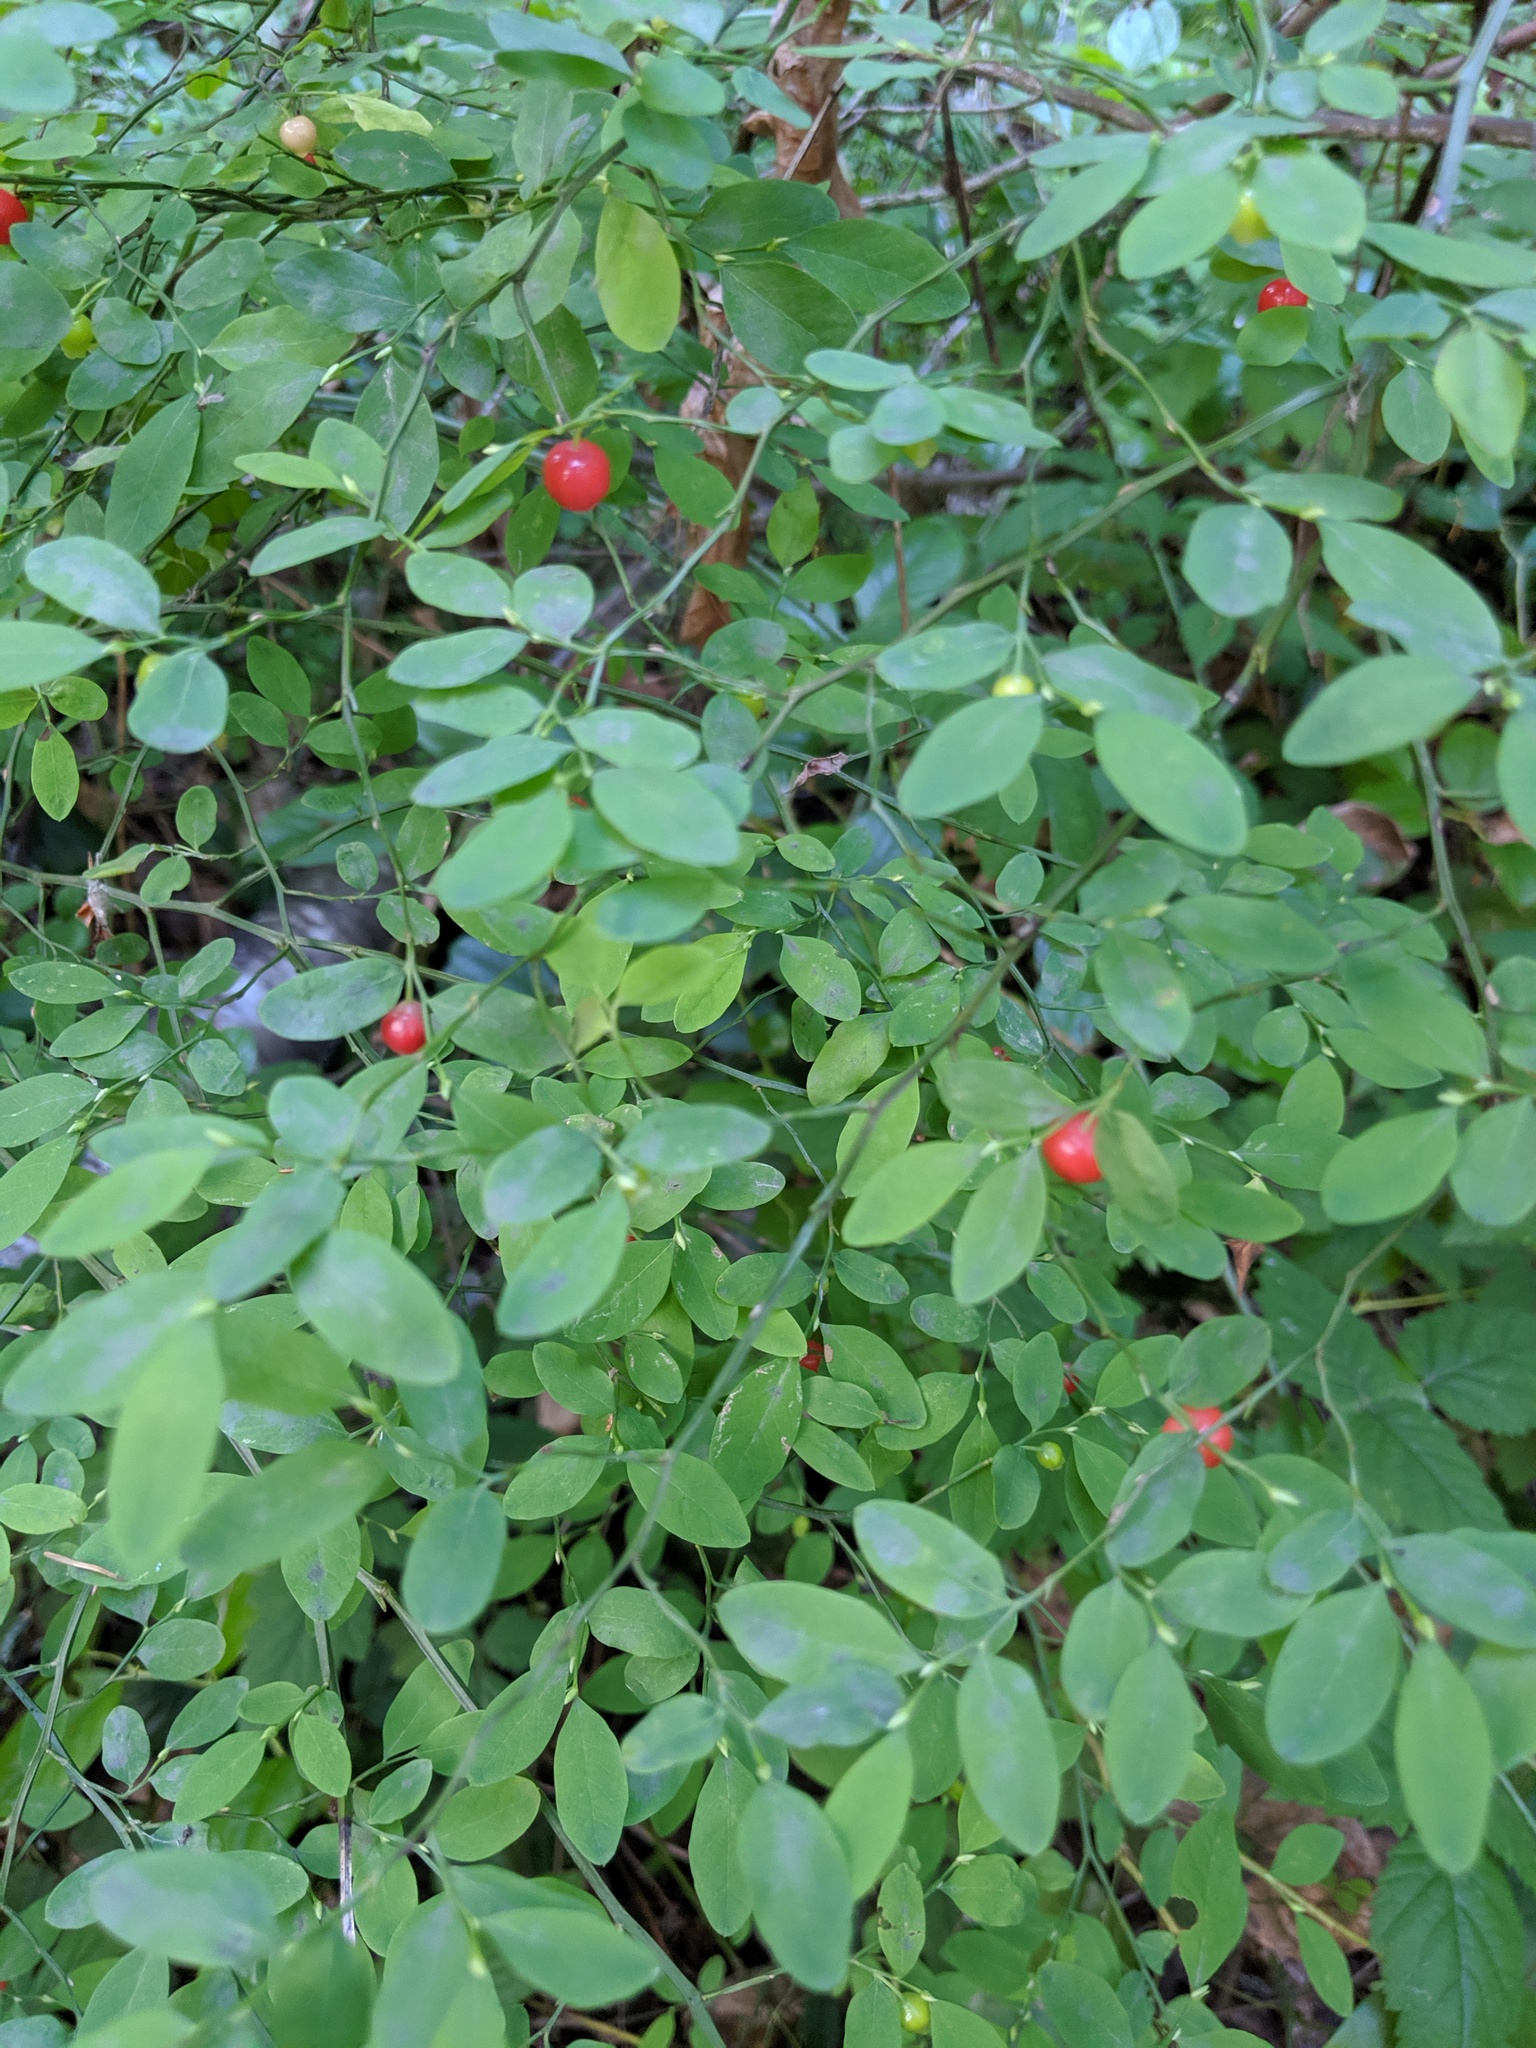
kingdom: Plantae
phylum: Tracheophyta
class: Magnoliopsida
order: Ericales
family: Ericaceae
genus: Vaccinium
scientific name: Vaccinium parvifolium
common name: Red-huckleberry
